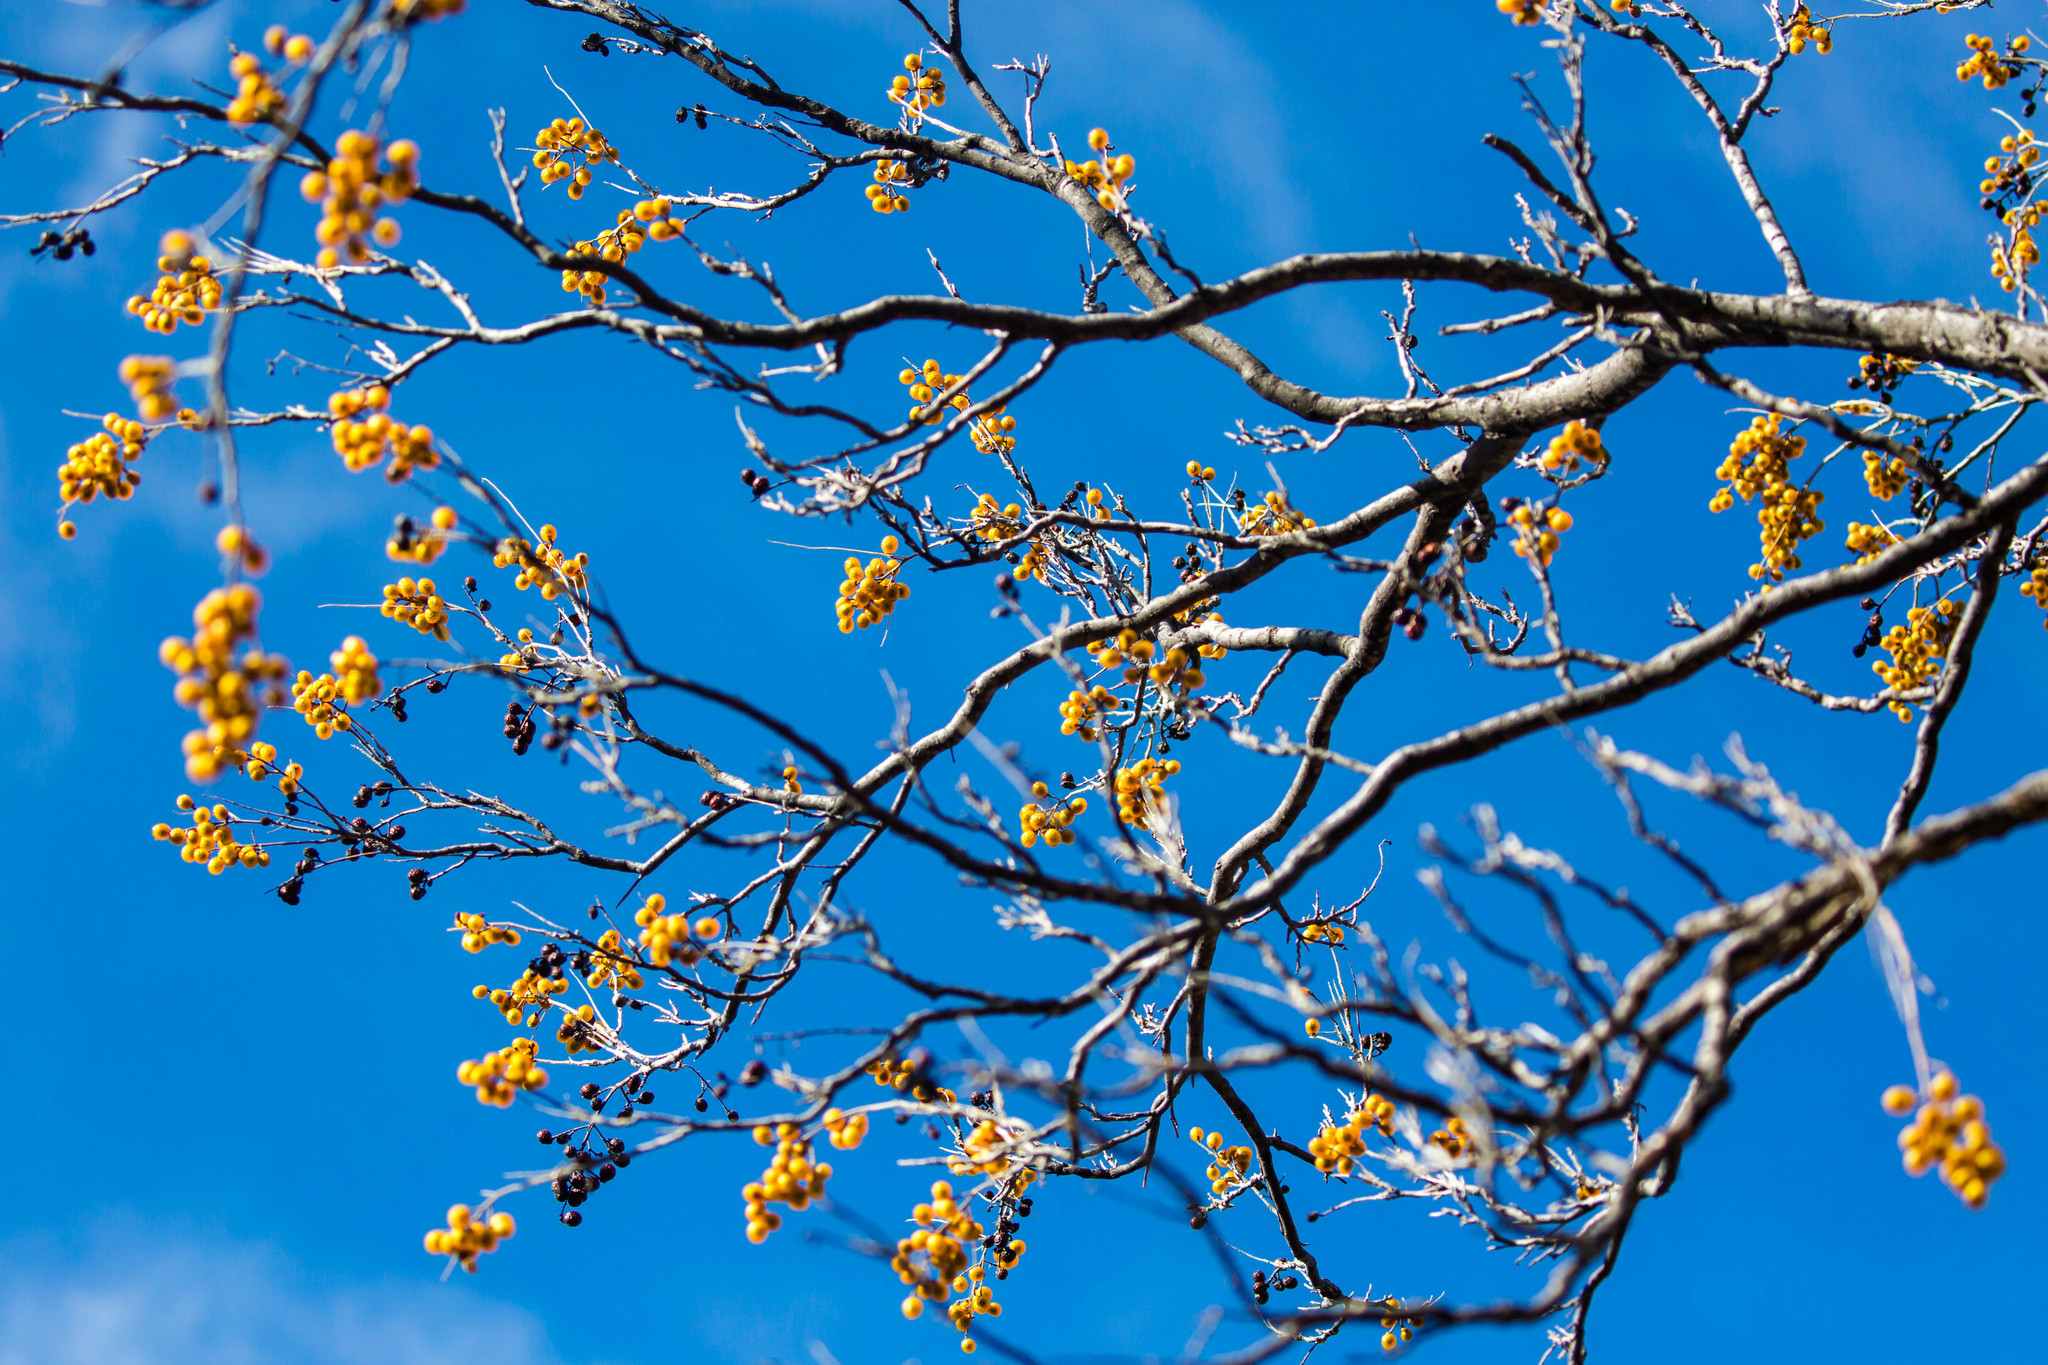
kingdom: Plantae
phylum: Tracheophyta
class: Magnoliopsida
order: Sapindales
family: Sapindaceae
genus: Sapindus
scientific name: Sapindus drummondii
